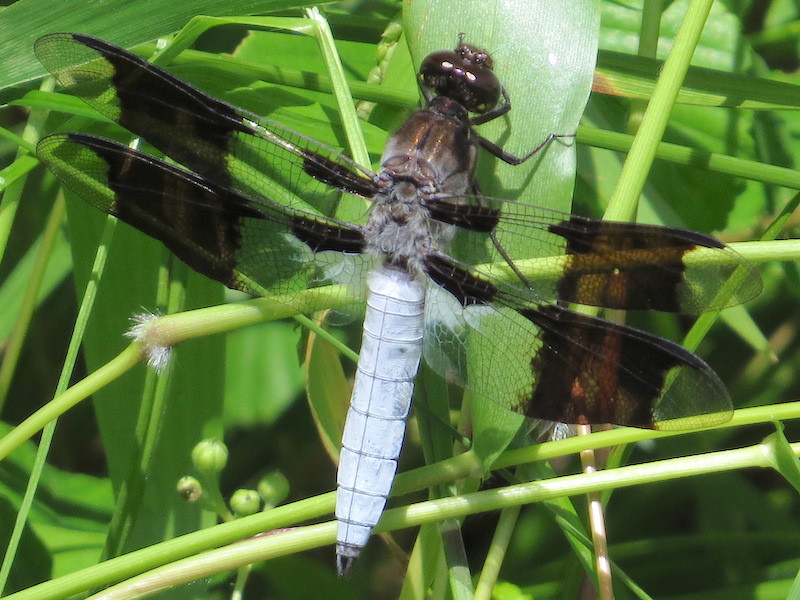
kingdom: Animalia
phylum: Arthropoda
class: Insecta
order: Odonata
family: Libellulidae
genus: Plathemis
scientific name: Plathemis lydia
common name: Common whitetail
